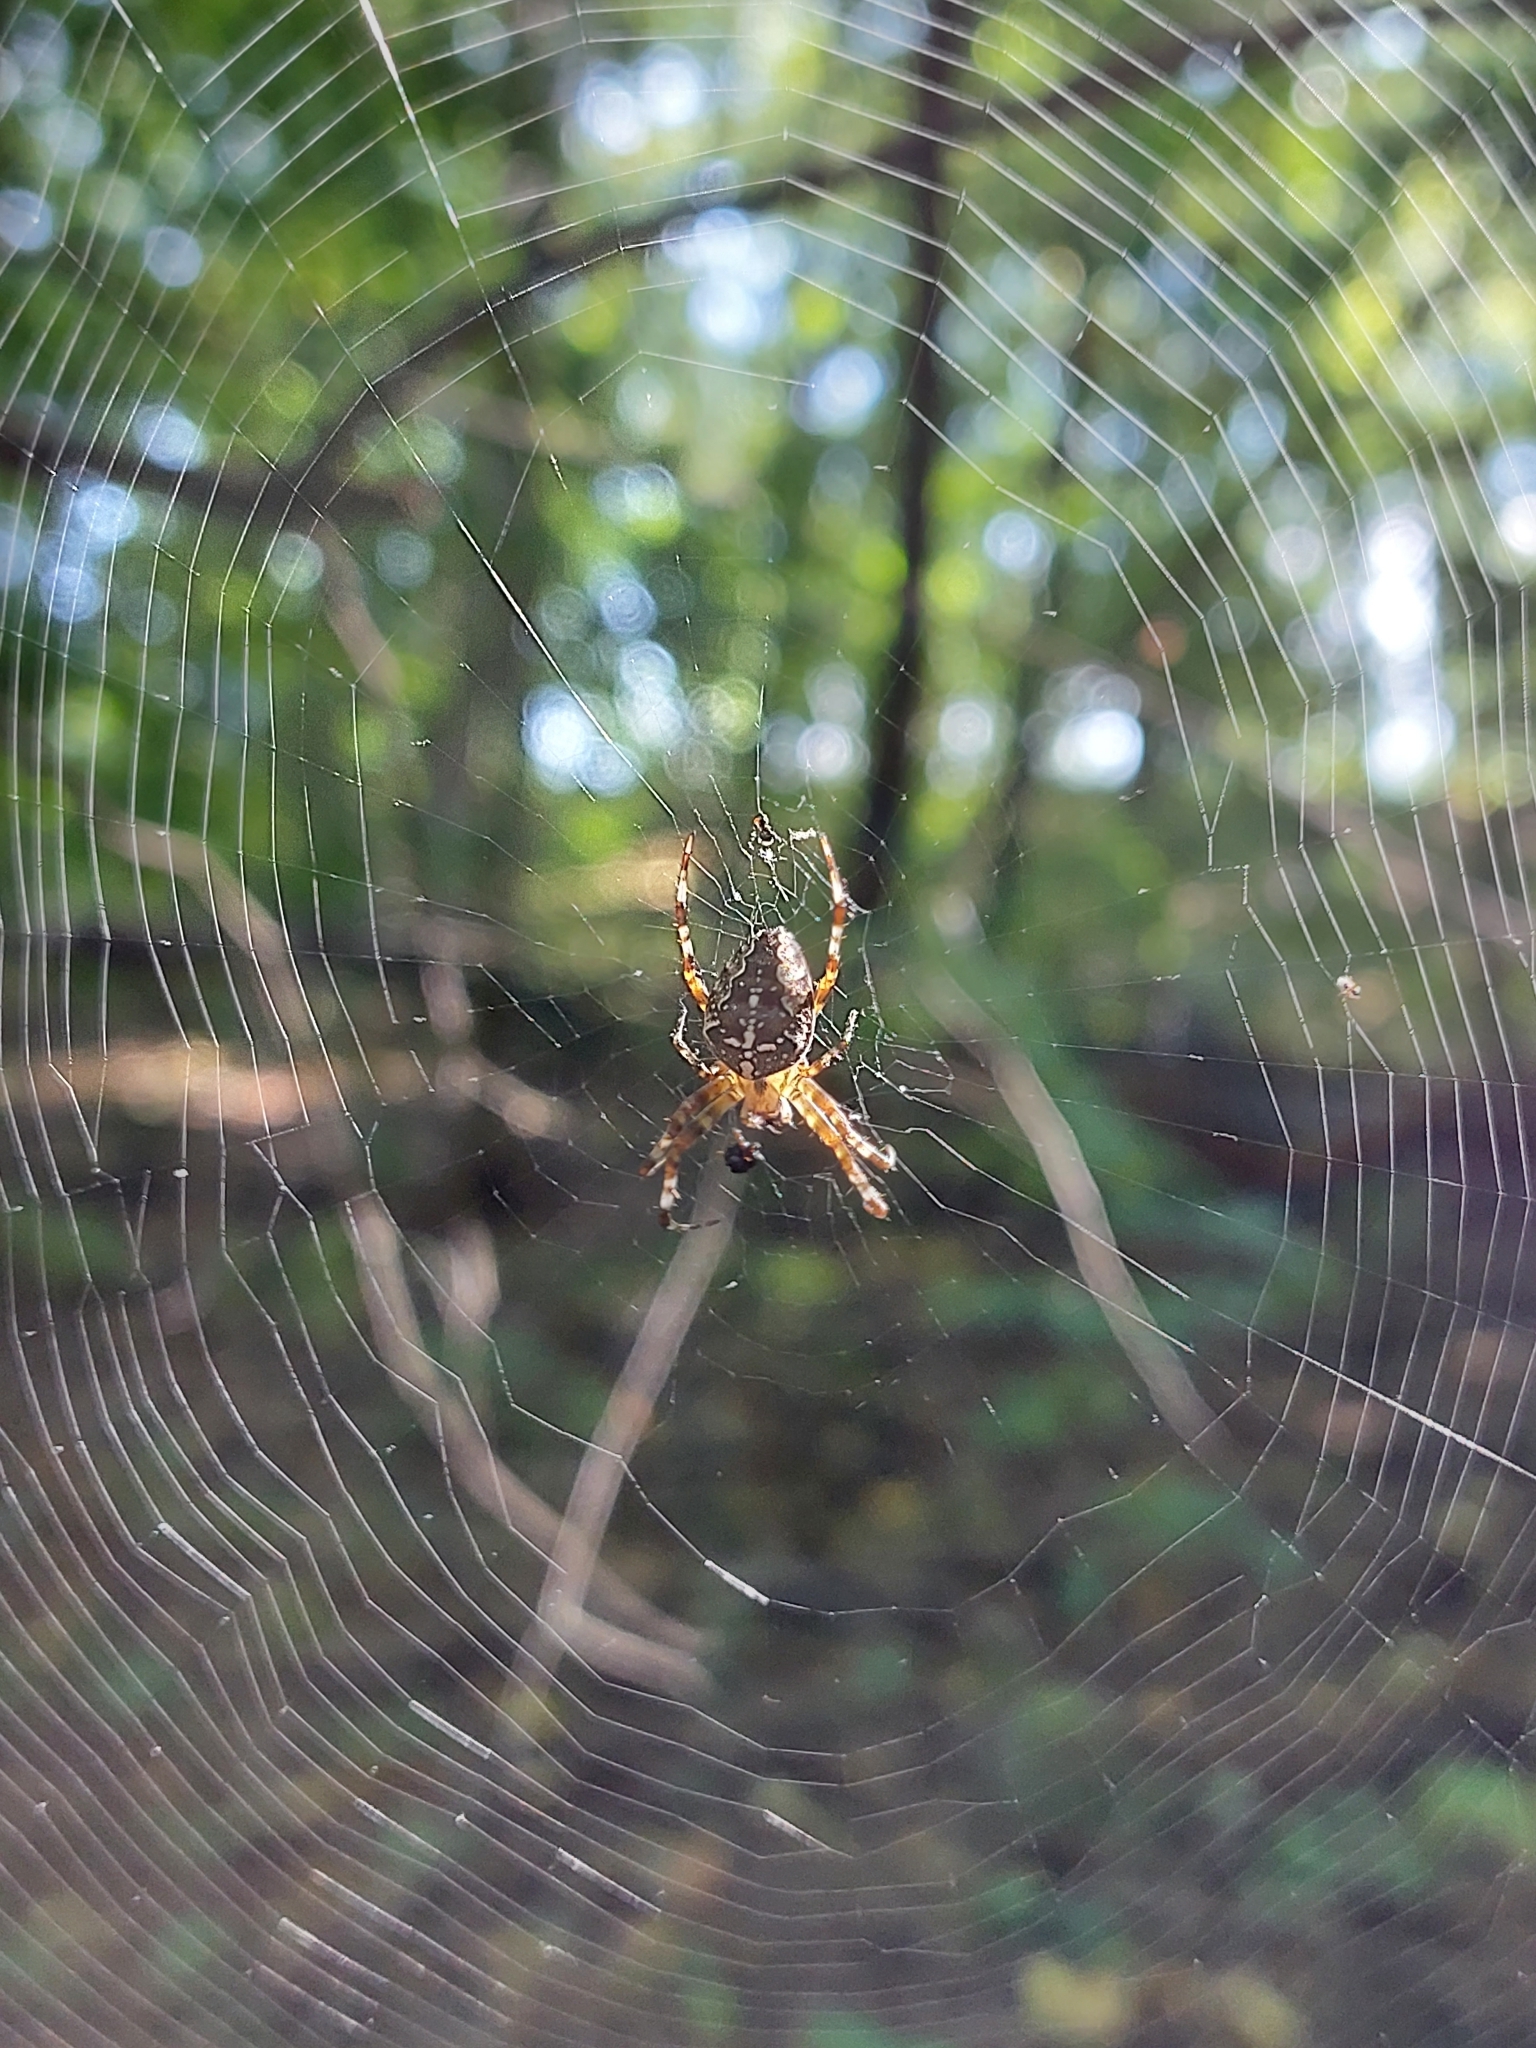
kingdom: Animalia
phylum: Arthropoda
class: Arachnida
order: Araneae
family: Araneidae
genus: Araneus
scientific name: Araneus diadematus
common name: Cross orbweaver
